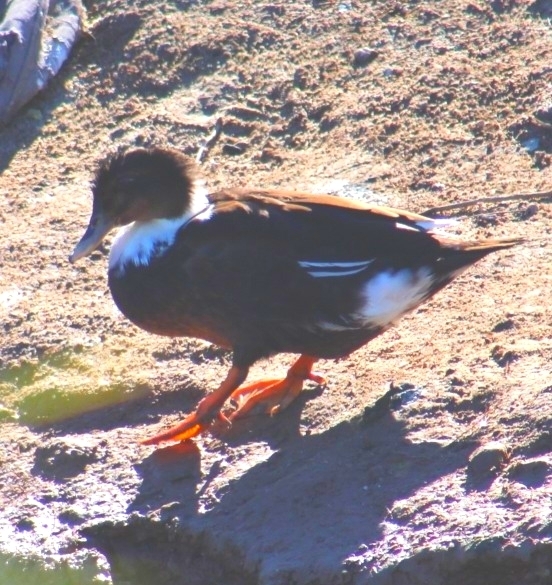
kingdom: Animalia
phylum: Chordata
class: Aves
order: Anseriformes
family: Anatidae
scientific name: Anatidae
